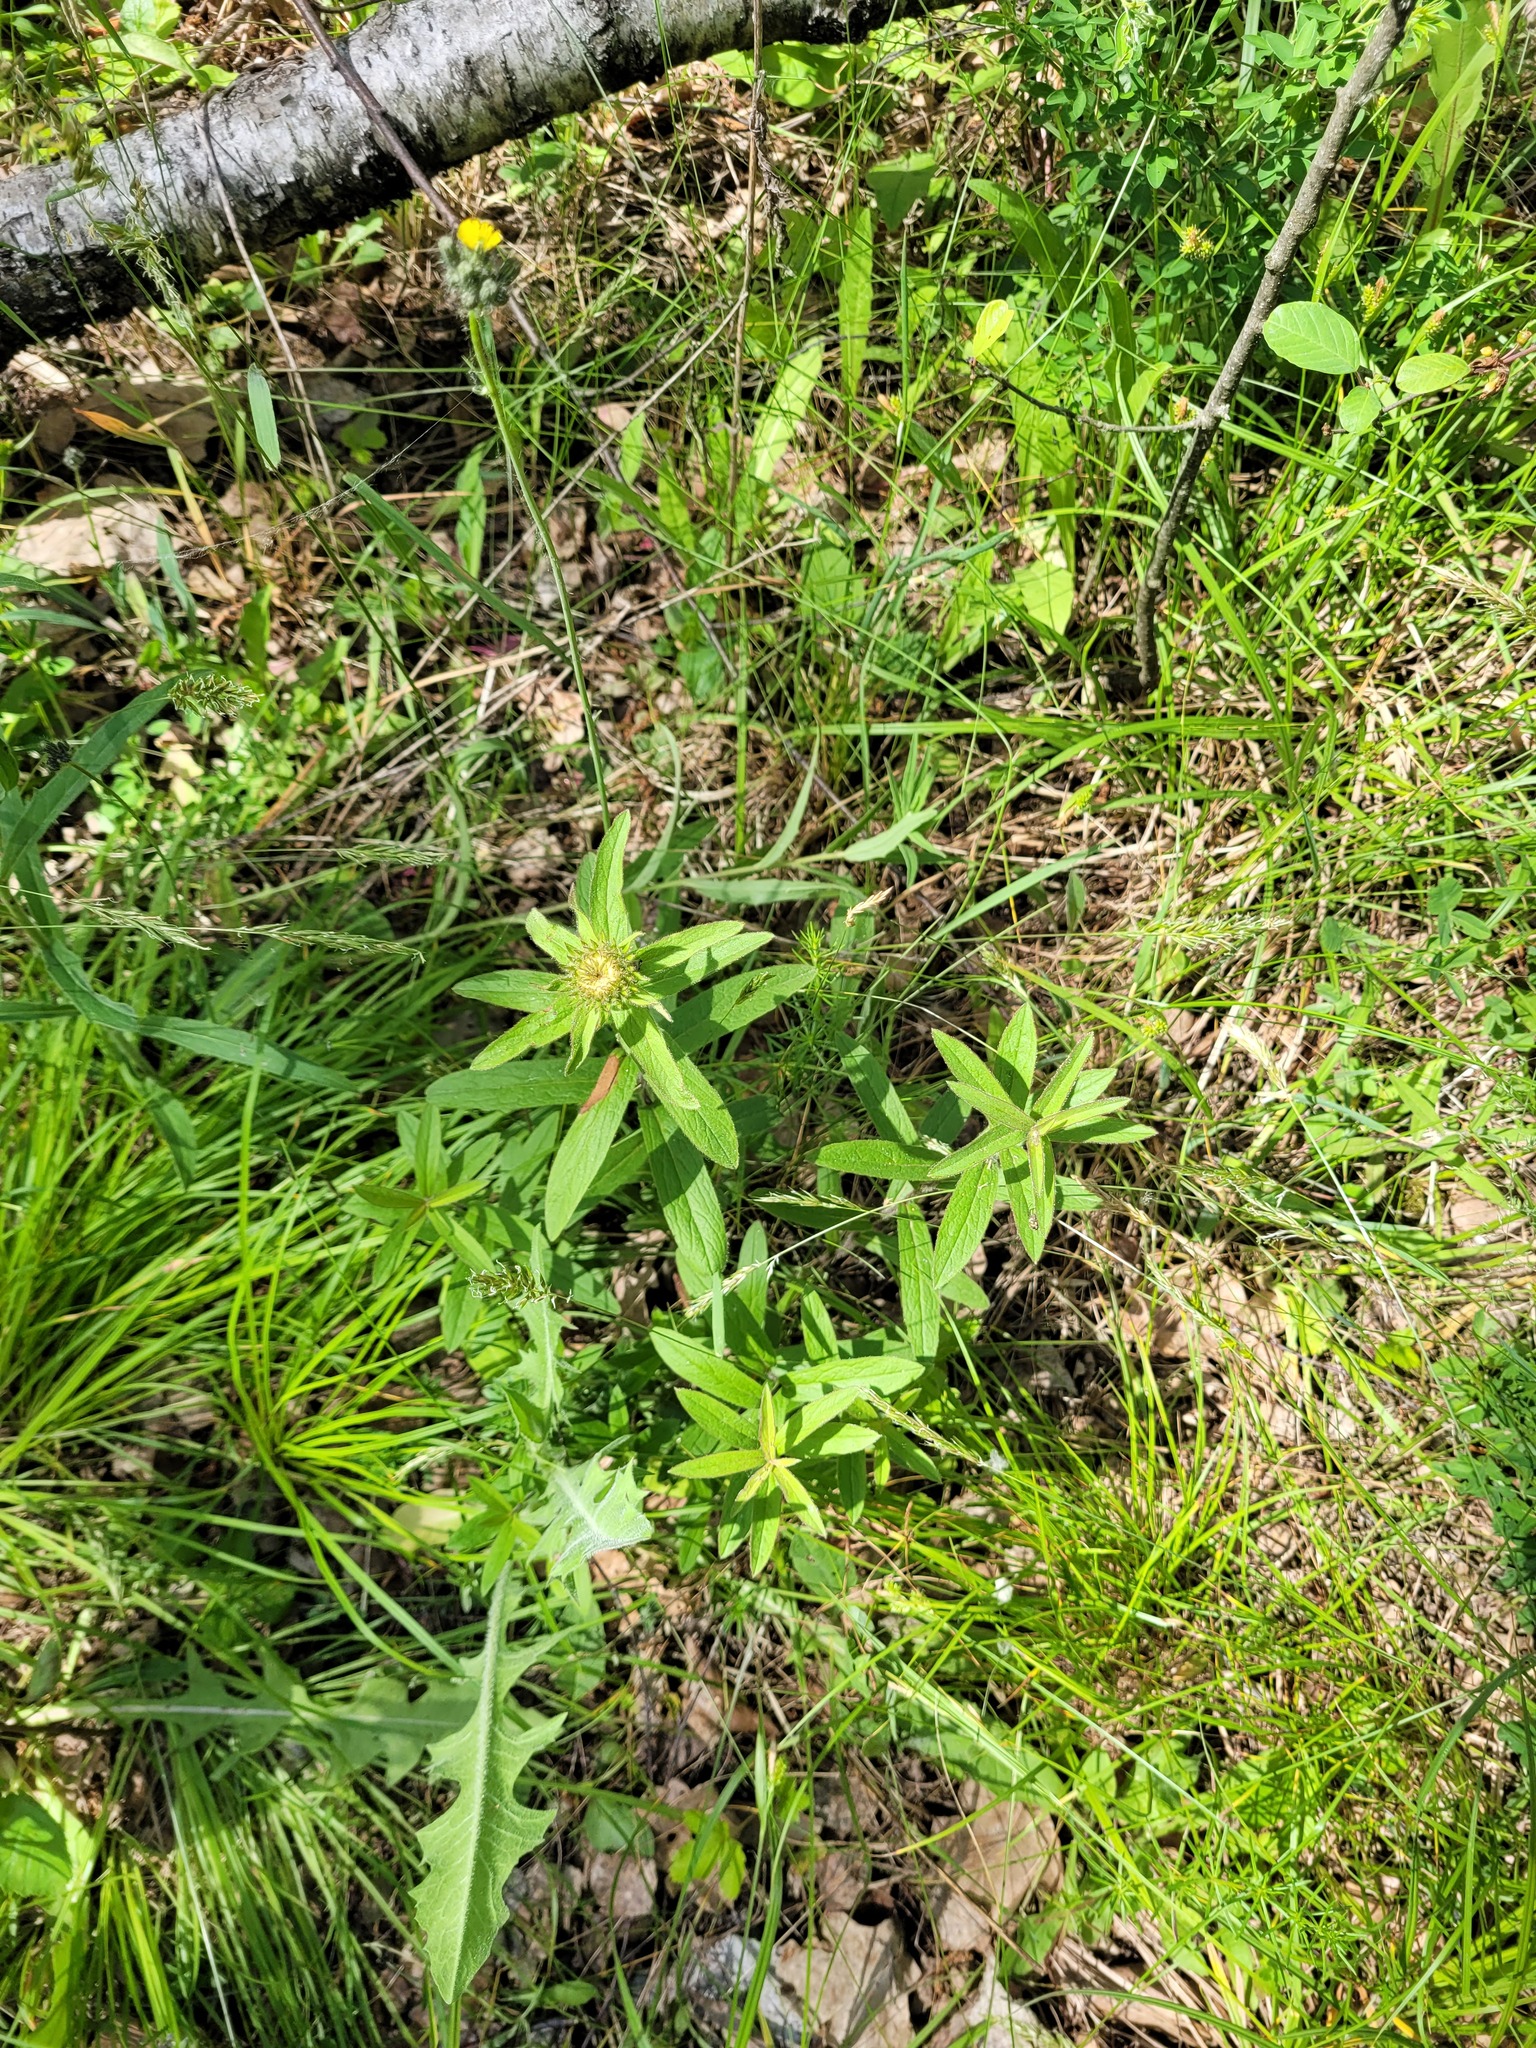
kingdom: Plantae
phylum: Tracheophyta
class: Magnoliopsida
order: Asterales
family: Asteraceae
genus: Pentanema
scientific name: Pentanema hirtum
